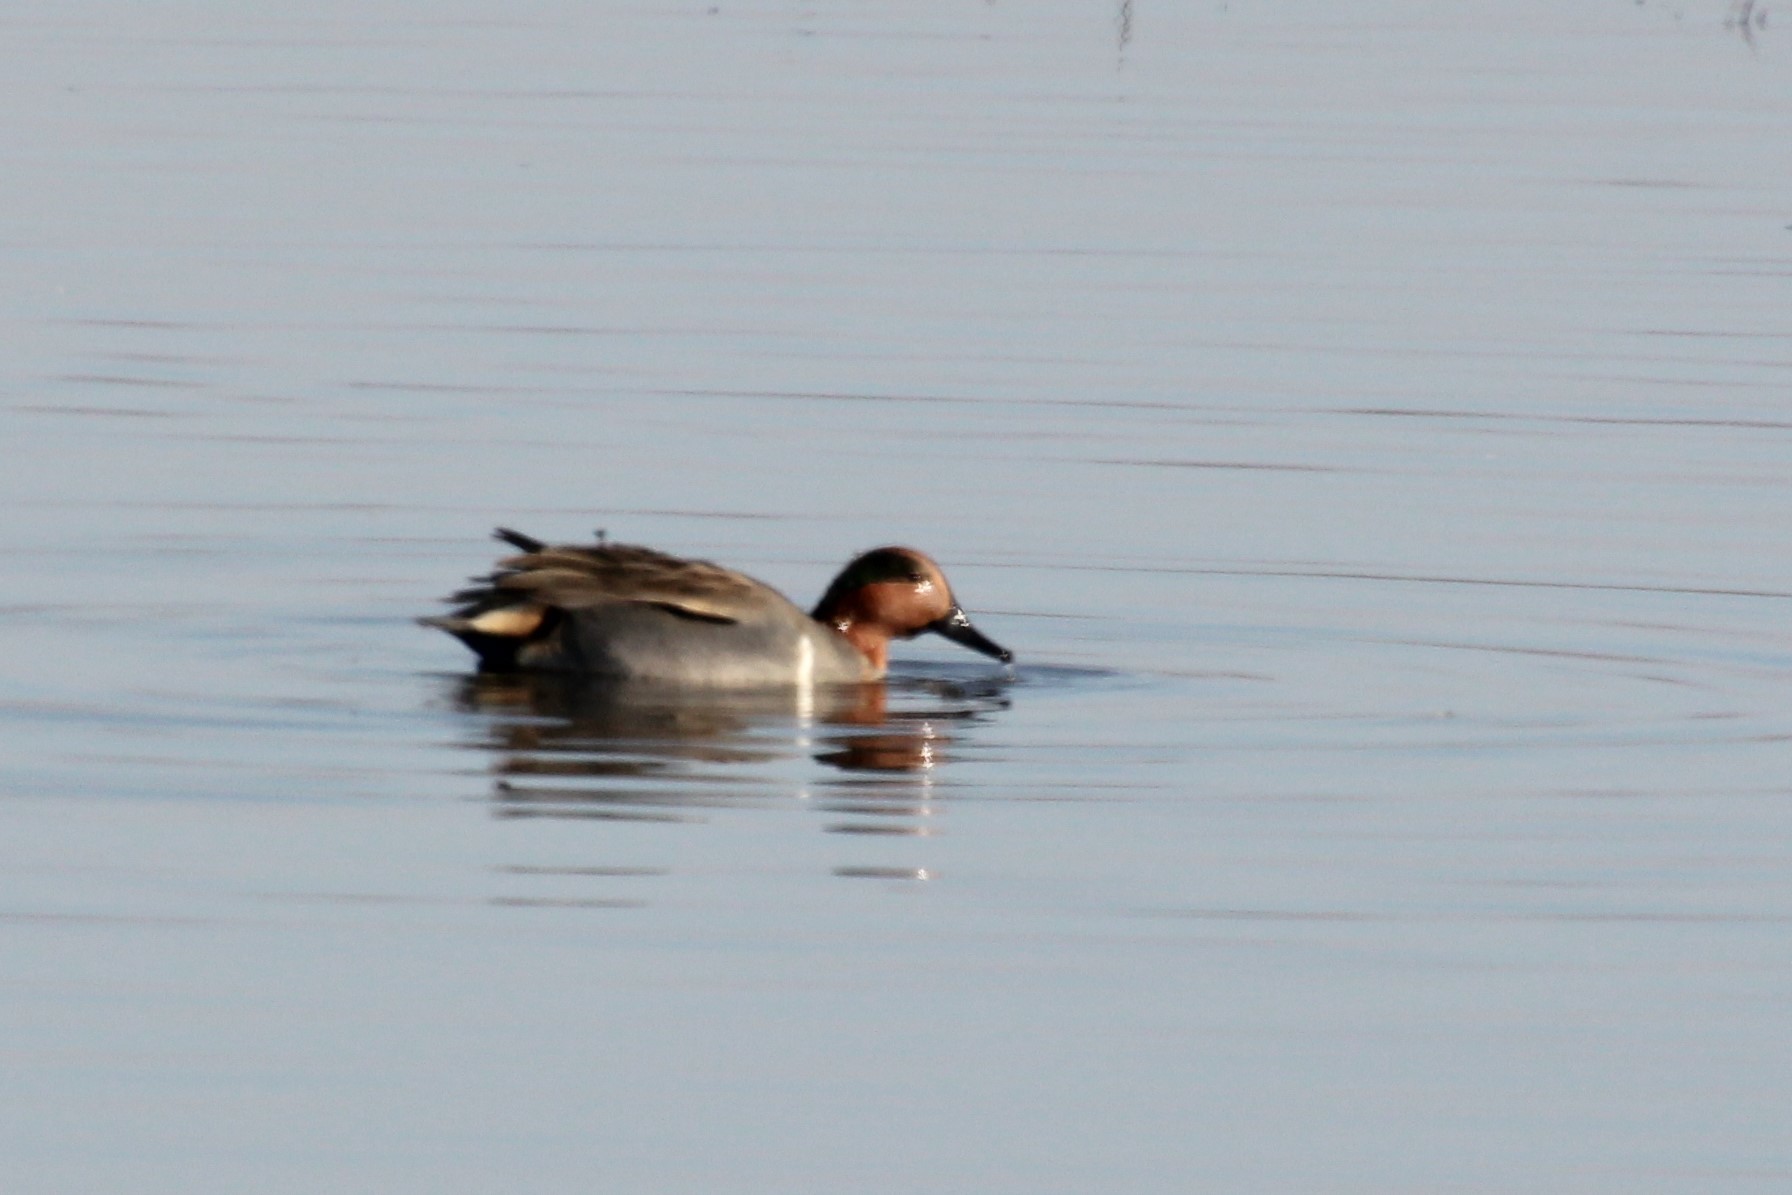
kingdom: Animalia
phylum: Chordata
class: Aves
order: Anseriformes
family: Anatidae
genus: Anas
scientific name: Anas crecca
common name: Eurasian teal
